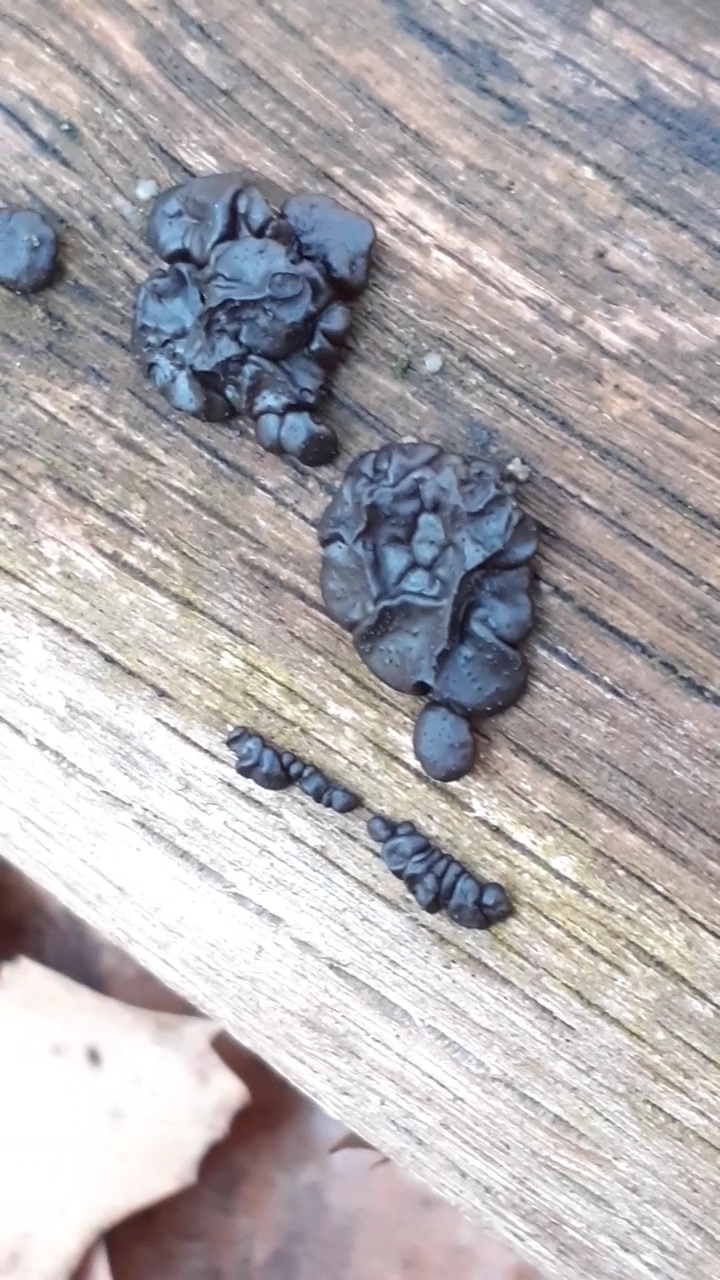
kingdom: Fungi
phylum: Basidiomycota
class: Agaricomycetes
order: Auriculariales
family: Auriculariaceae
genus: Exidia
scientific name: Exidia nigricans
